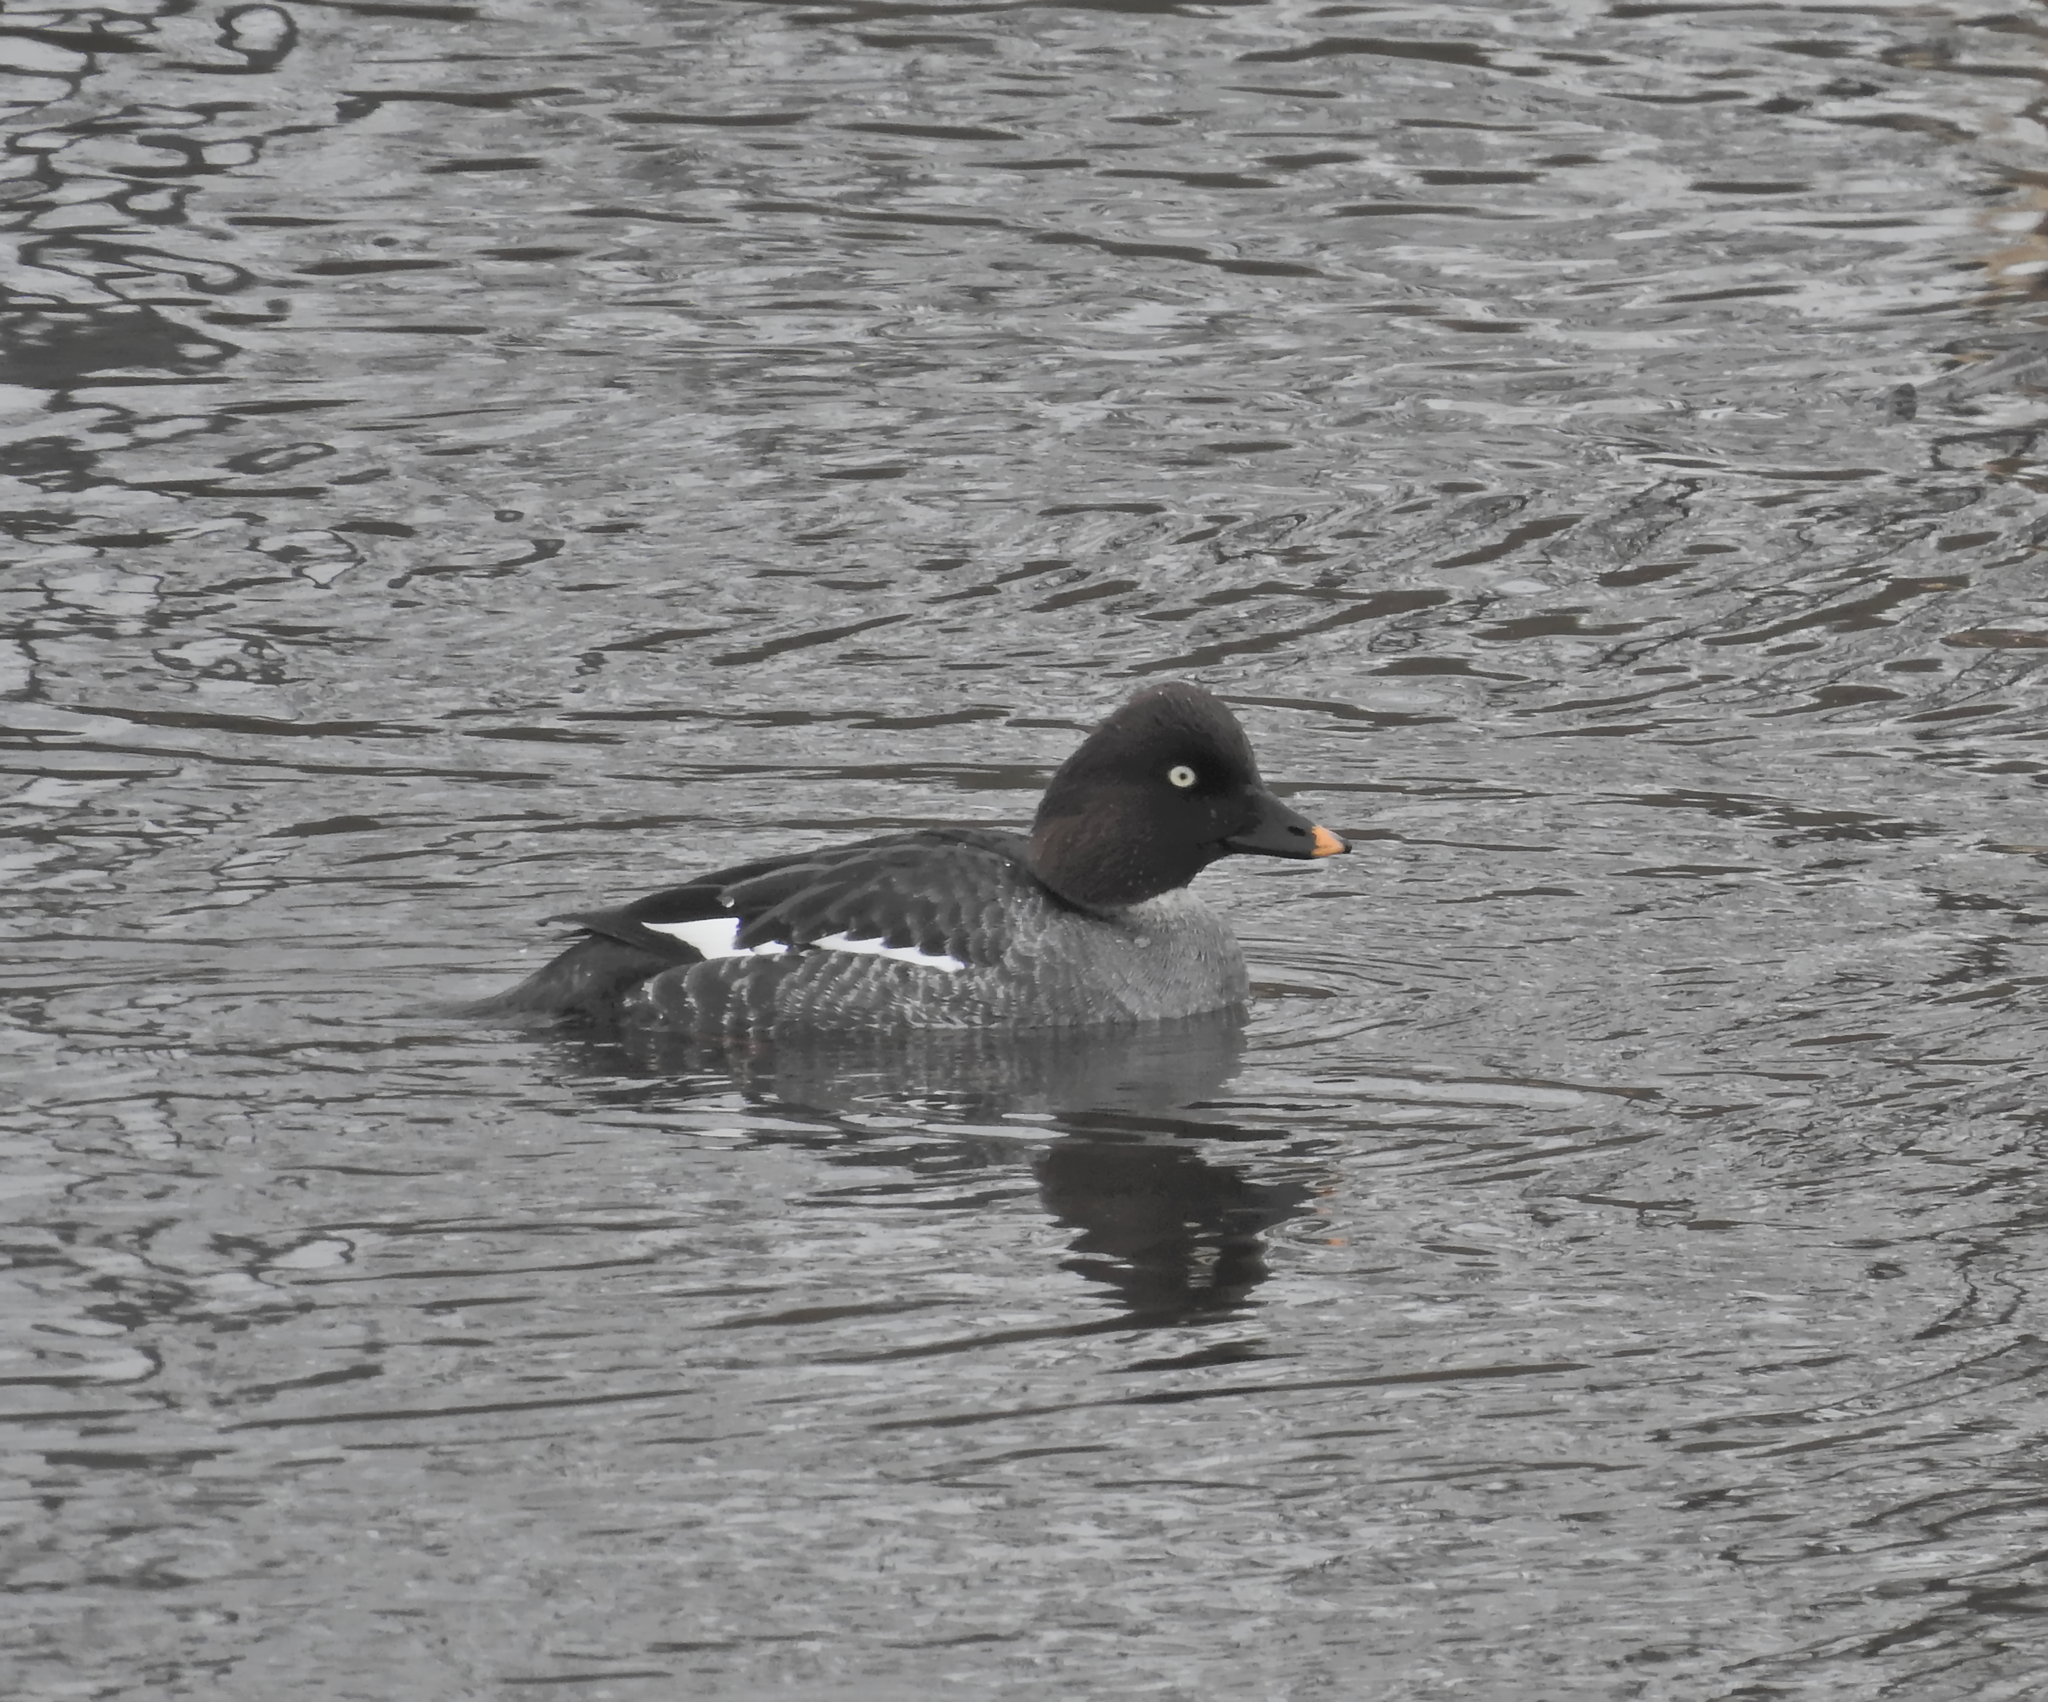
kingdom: Animalia
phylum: Chordata
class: Aves
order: Anseriformes
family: Anatidae
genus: Bucephala
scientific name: Bucephala clangula
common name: Common goldeneye
